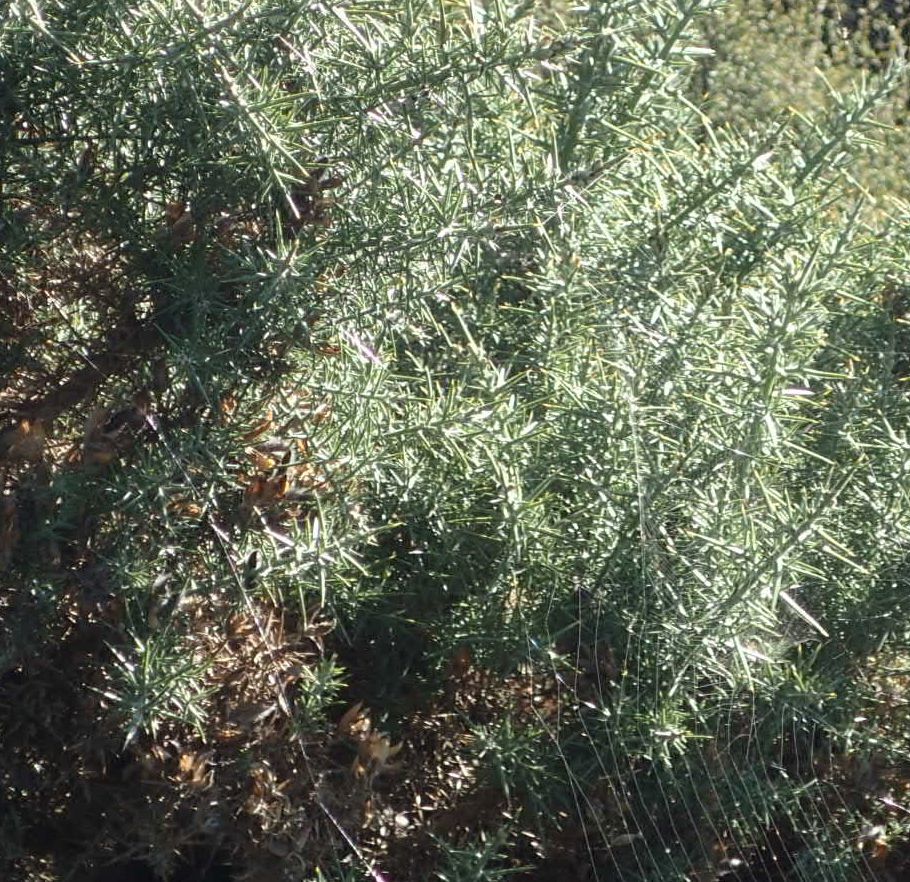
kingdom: Plantae
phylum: Tracheophyta
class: Magnoliopsida
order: Fabales
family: Fabaceae
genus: Ulex
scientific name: Ulex europaeus
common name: Common gorse
